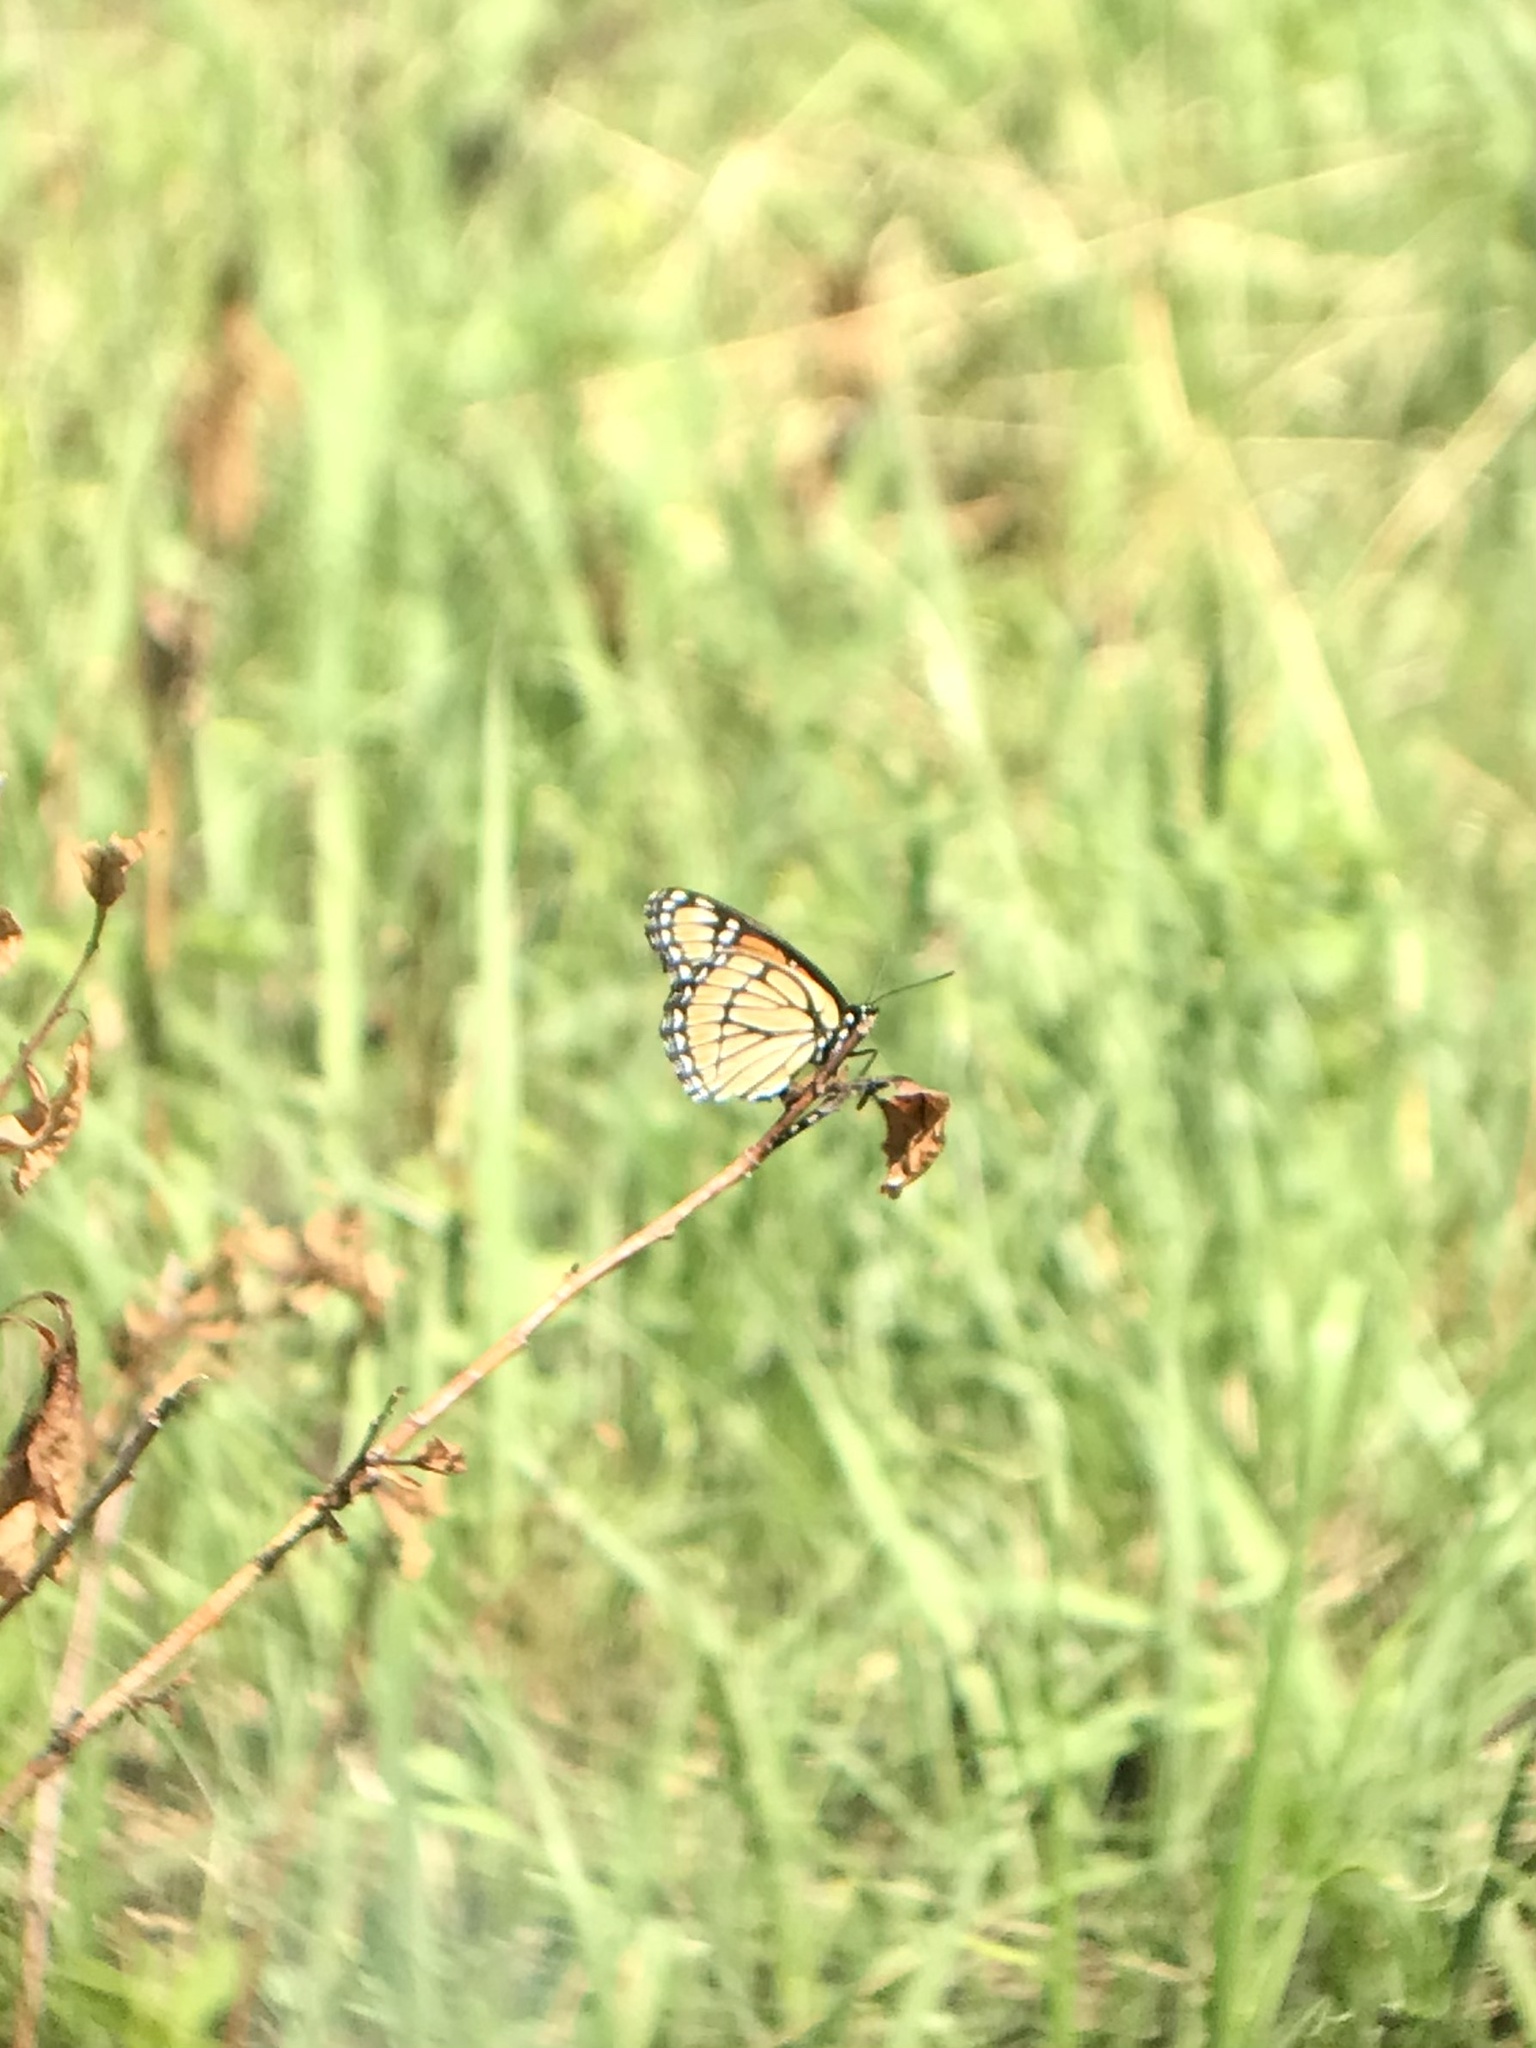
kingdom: Animalia
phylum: Arthropoda
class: Insecta
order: Lepidoptera
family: Nymphalidae
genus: Limenitis
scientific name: Limenitis archippus
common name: Viceroy
